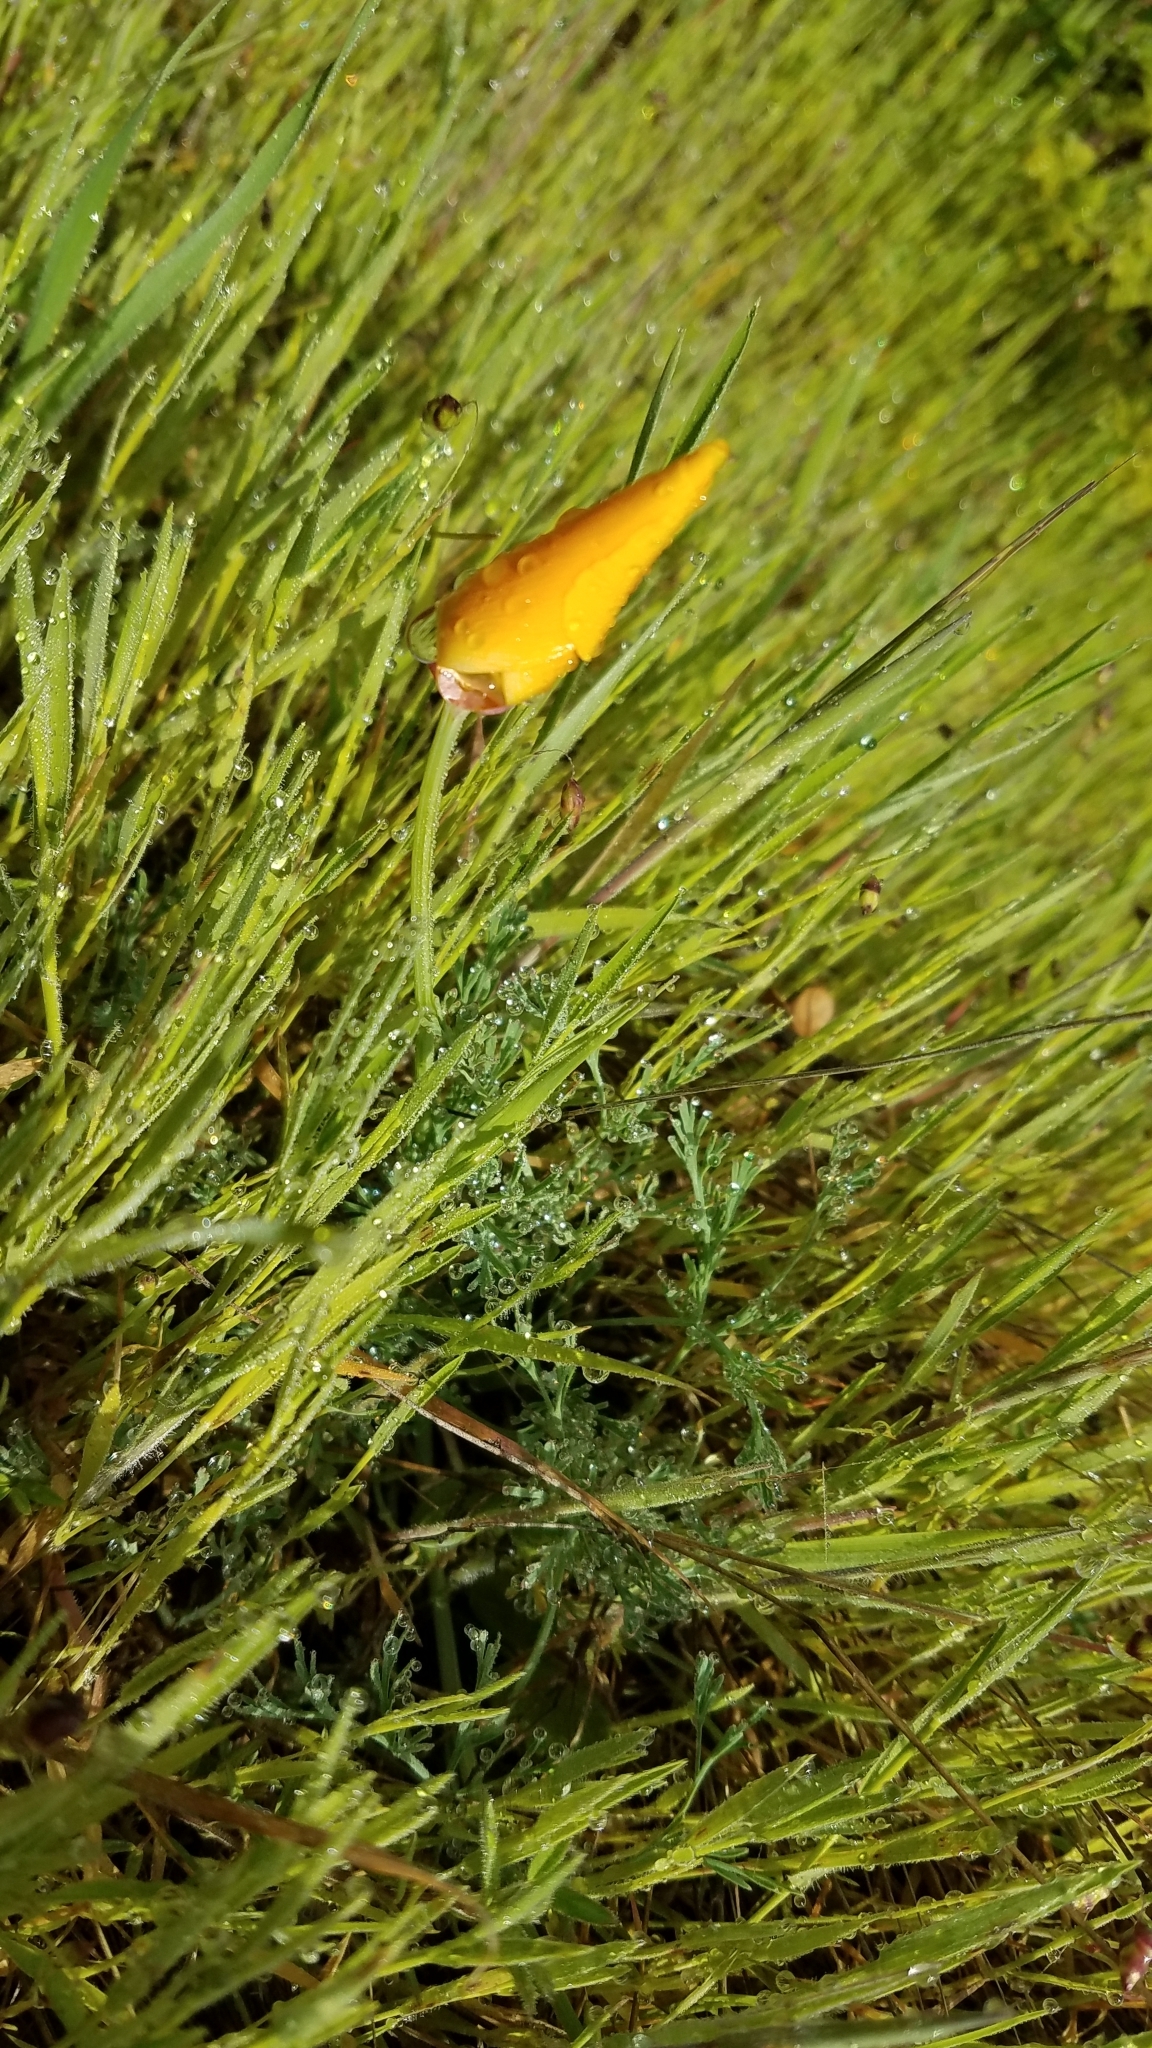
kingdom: Plantae
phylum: Tracheophyta
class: Magnoliopsida
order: Ranunculales
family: Papaveraceae
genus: Eschscholzia
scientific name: Eschscholzia californica
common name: California poppy
